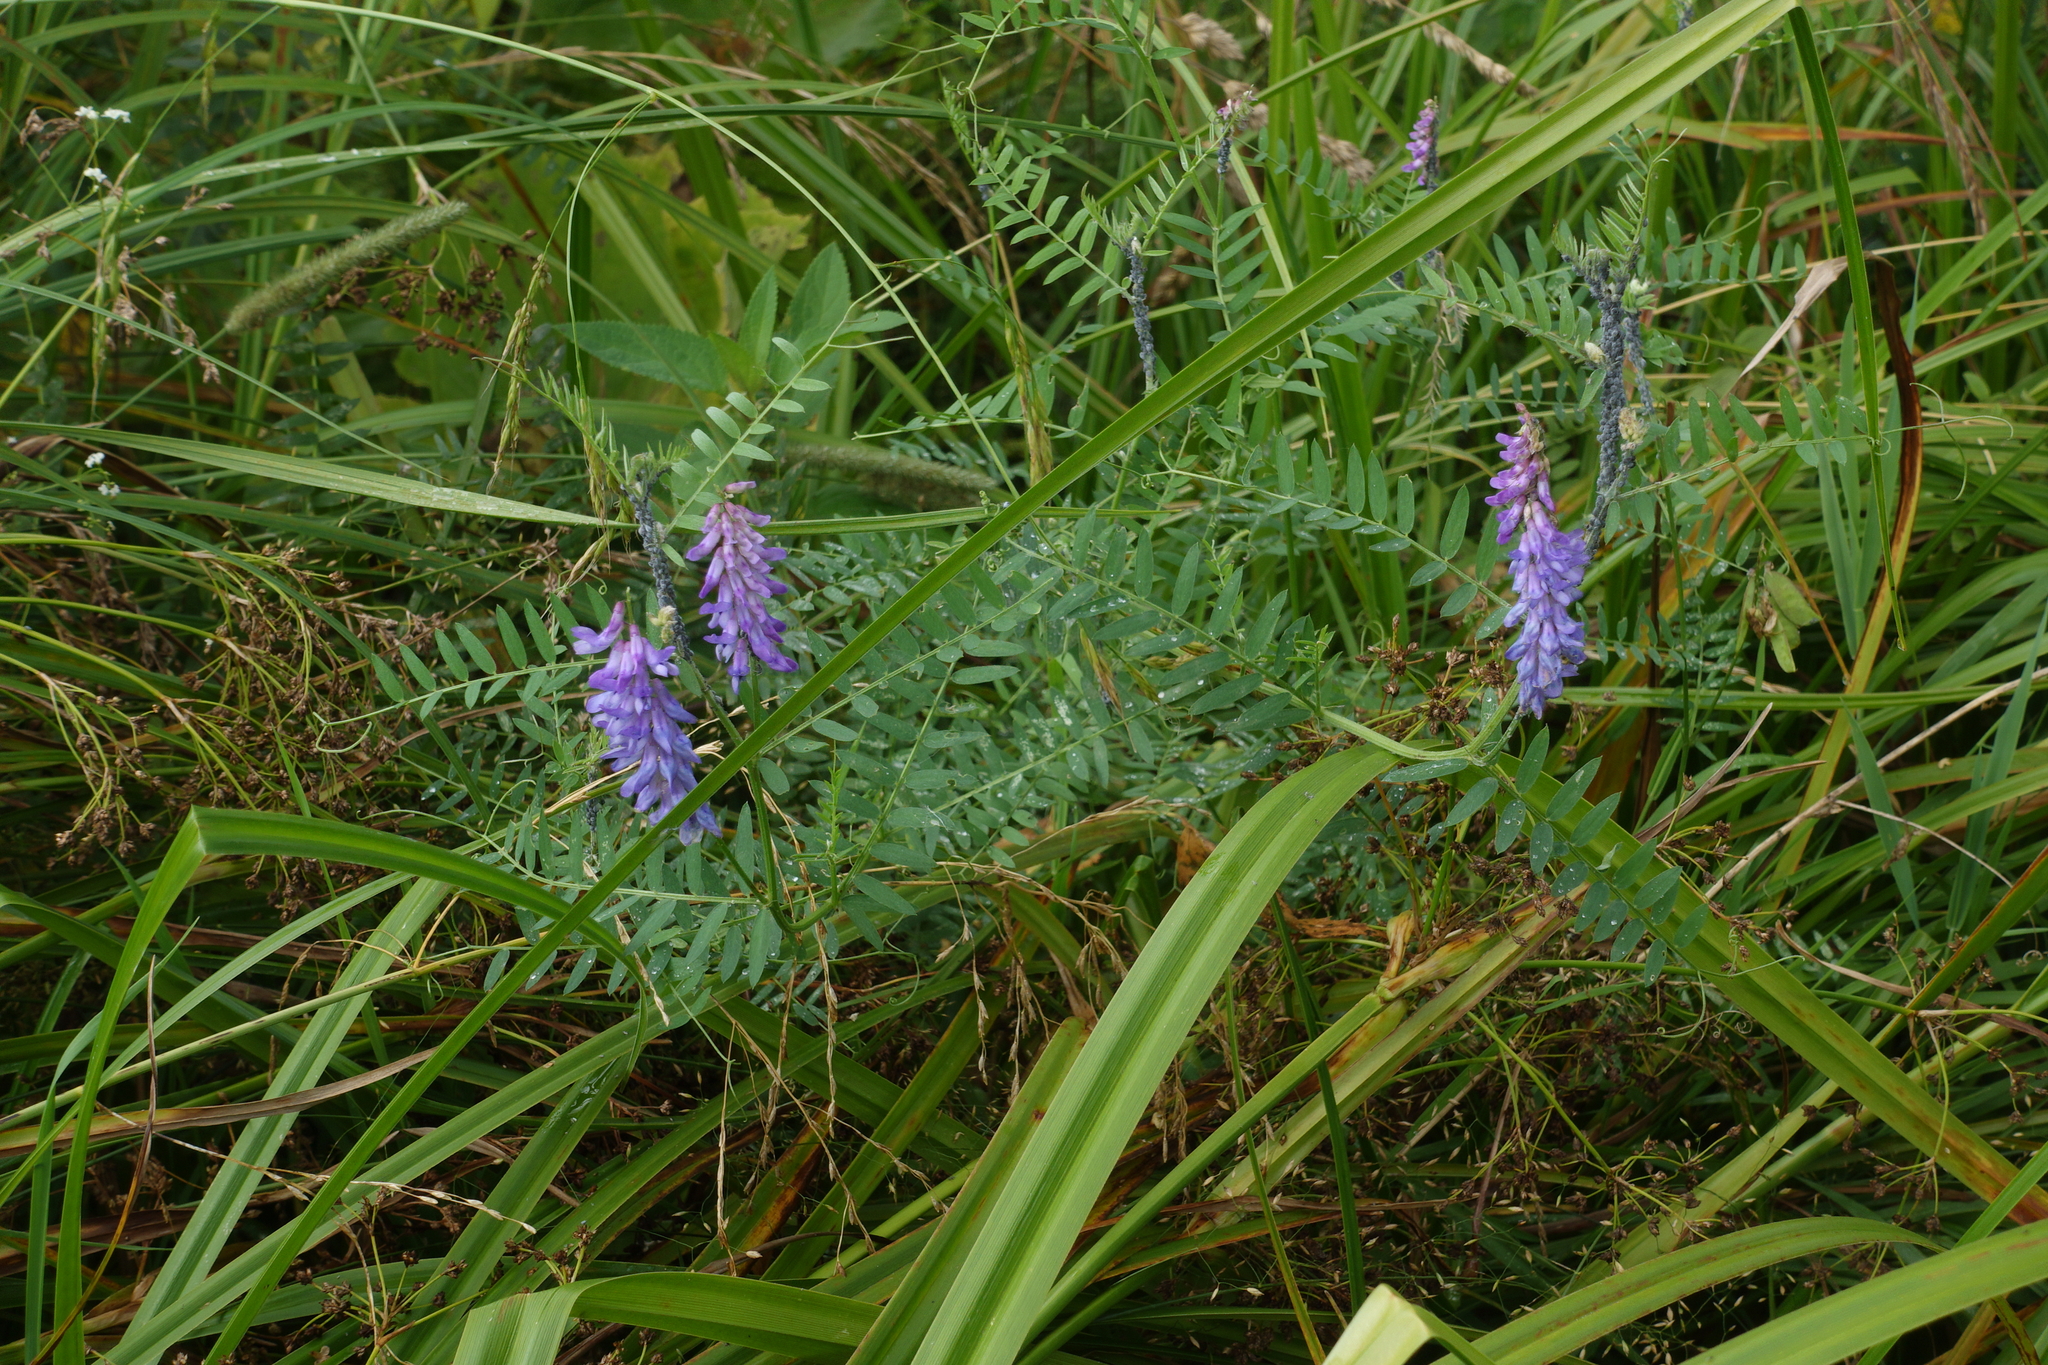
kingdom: Plantae
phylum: Tracheophyta
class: Magnoliopsida
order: Fabales
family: Fabaceae
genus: Vicia
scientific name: Vicia cracca
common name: Bird vetch
